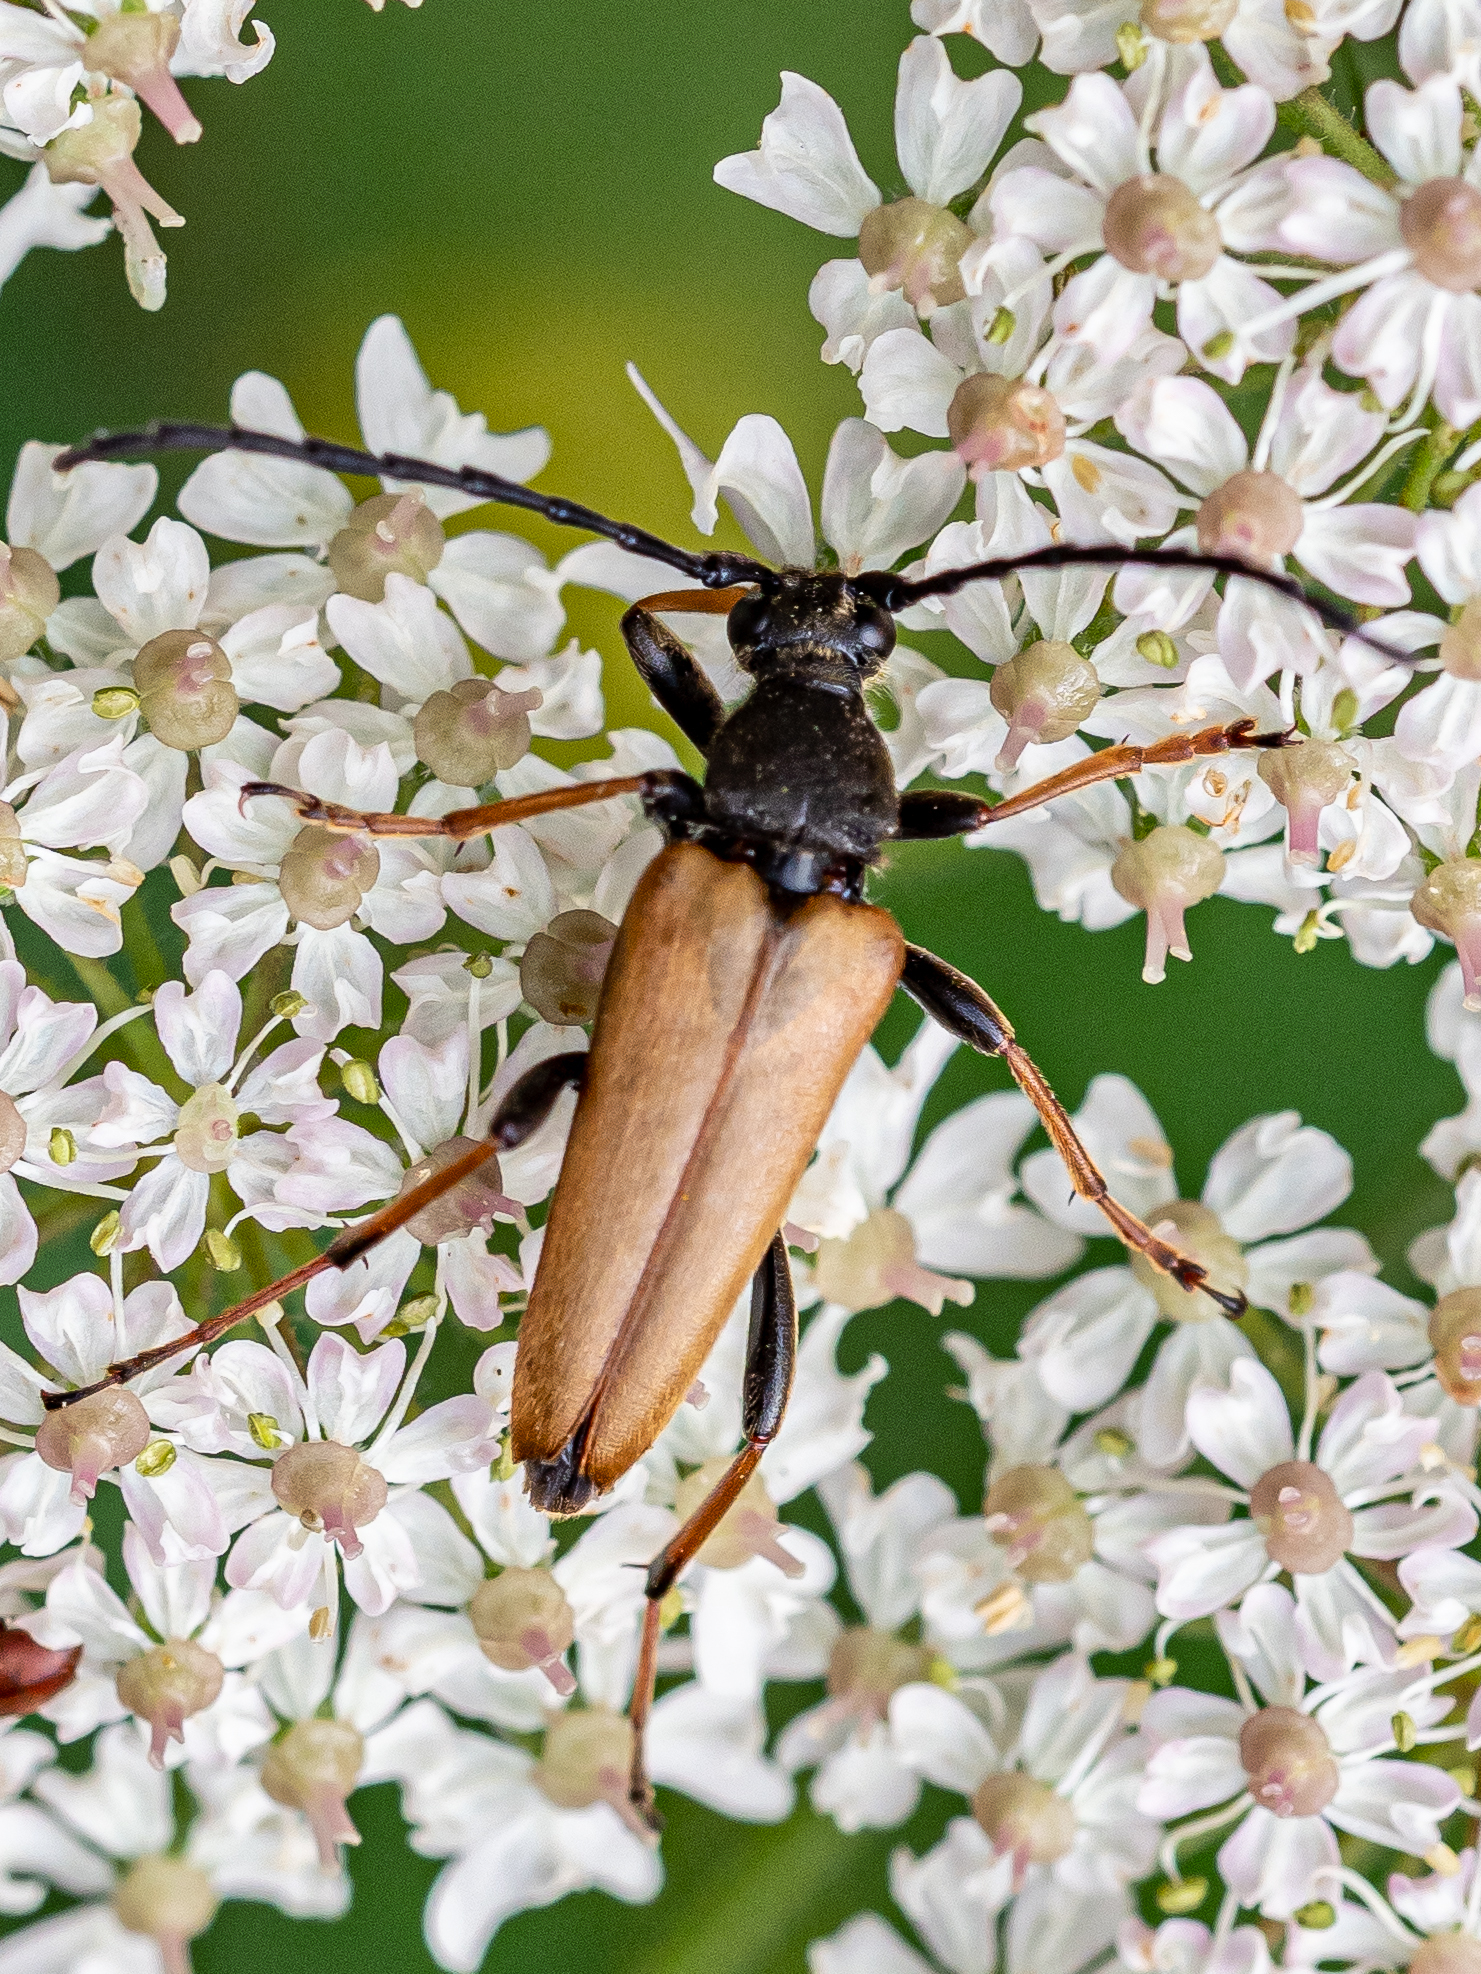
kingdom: Animalia
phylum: Arthropoda
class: Insecta
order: Coleoptera
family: Cerambycidae
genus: Stictoleptura
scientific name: Stictoleptura rubra
